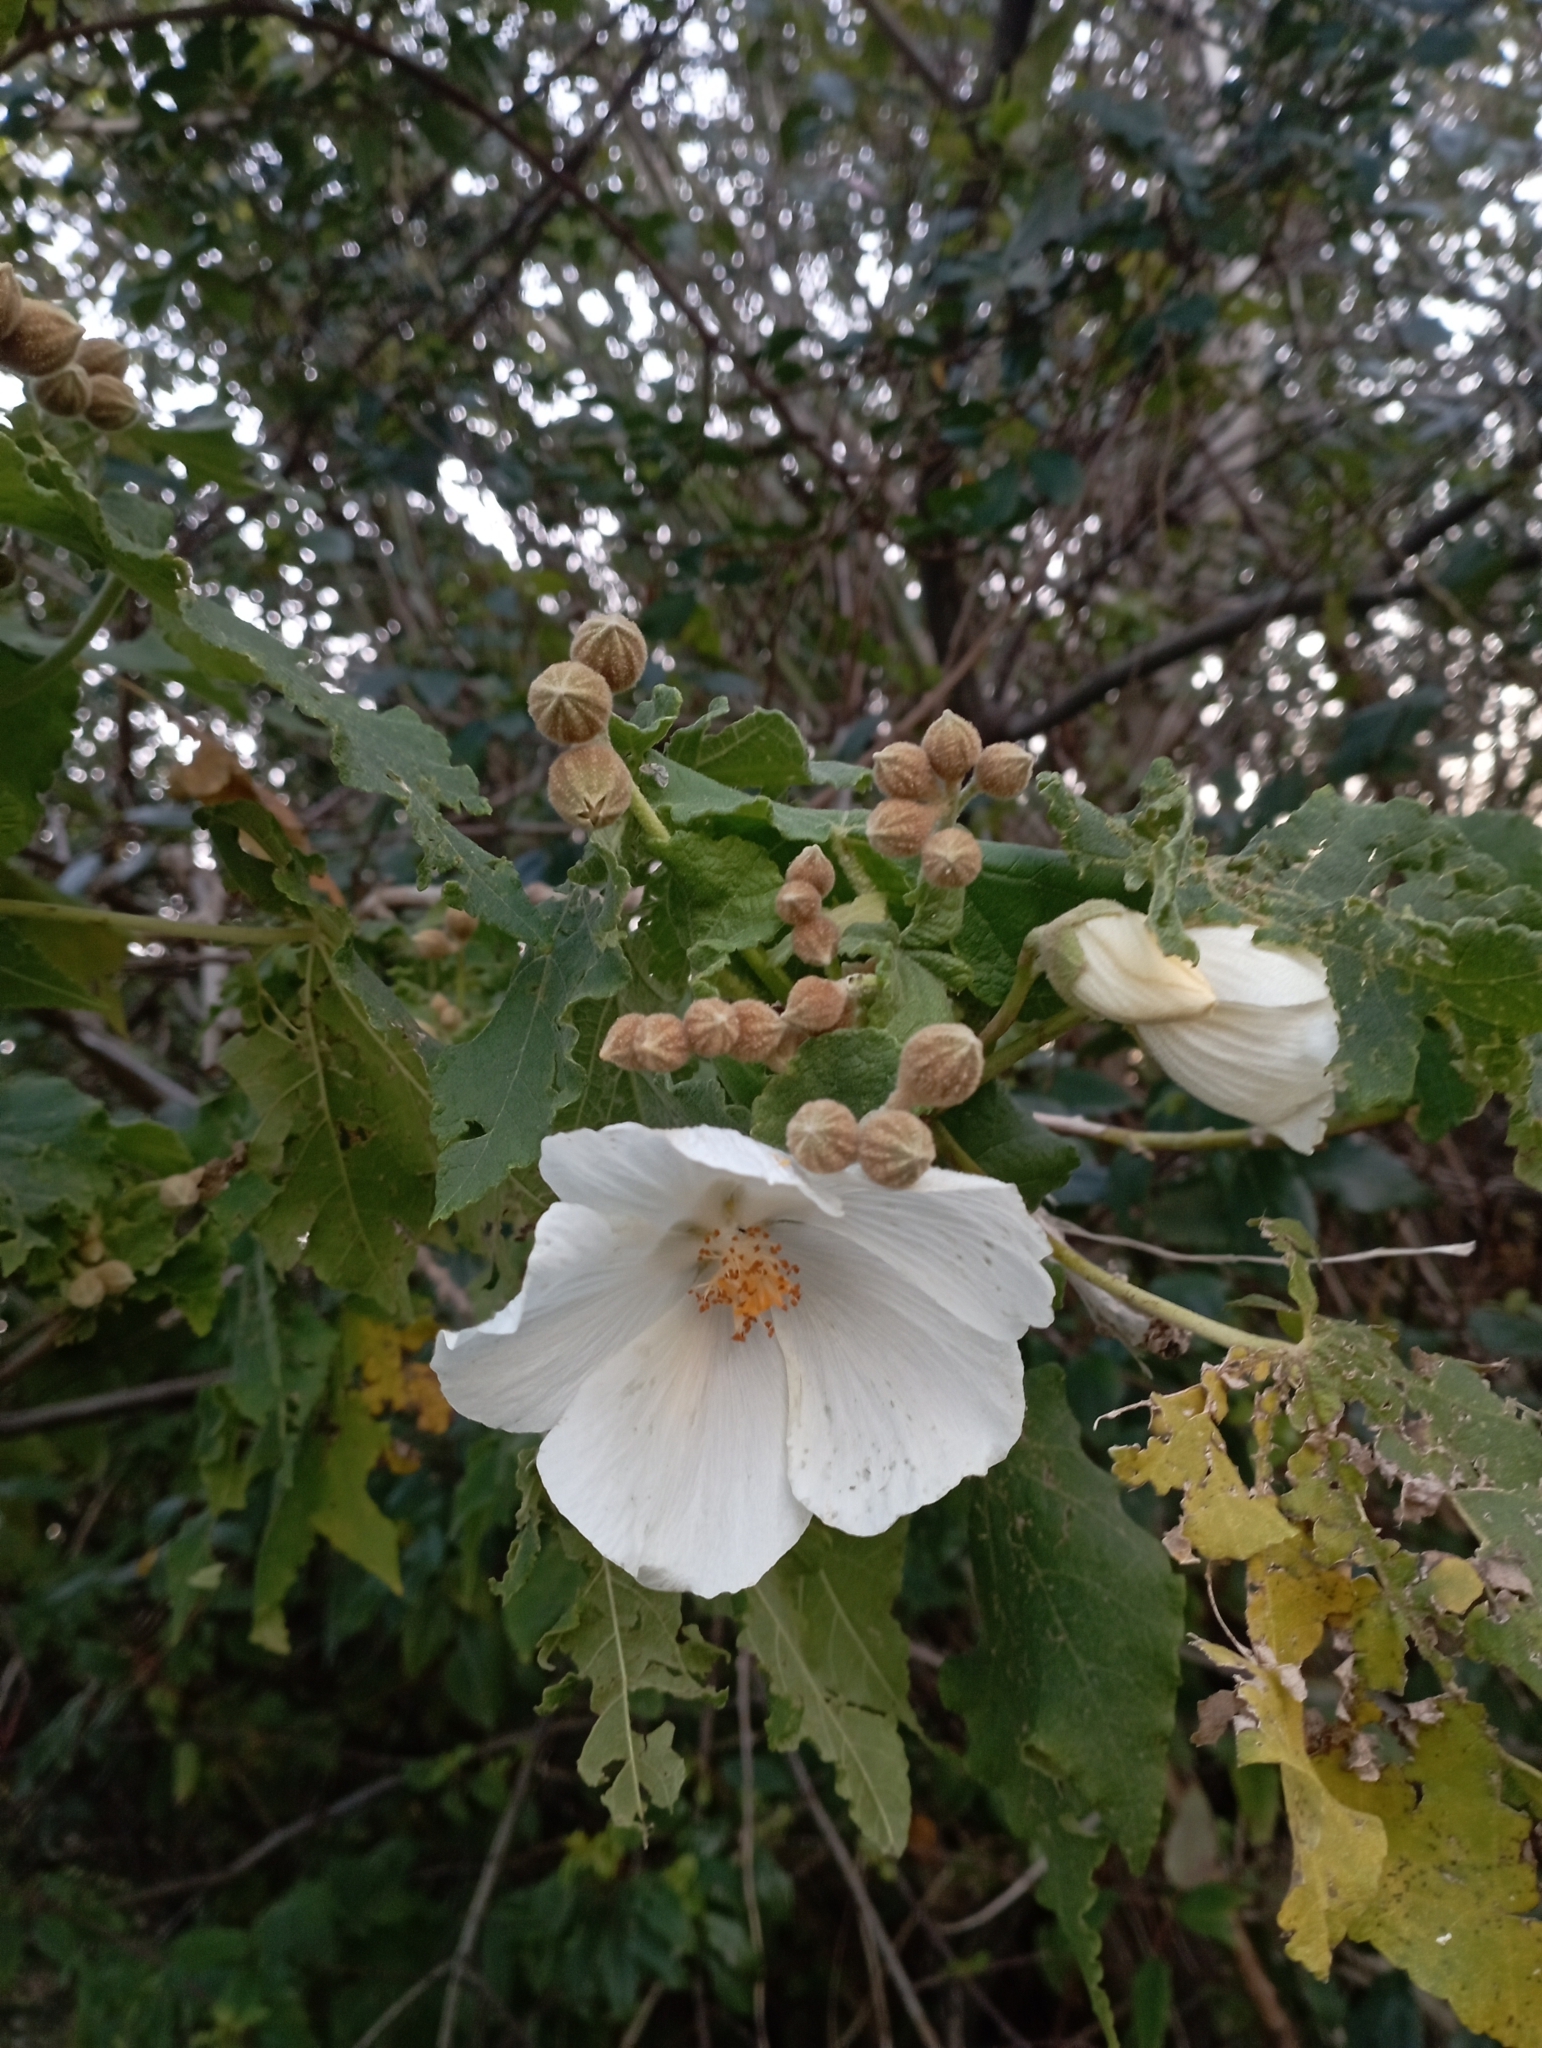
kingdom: Plantae
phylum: Tracheophyta
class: Magnoliopsida
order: Malvales
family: Malvaceae
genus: Corynabutilon
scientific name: Corynabutilon vitifolium
